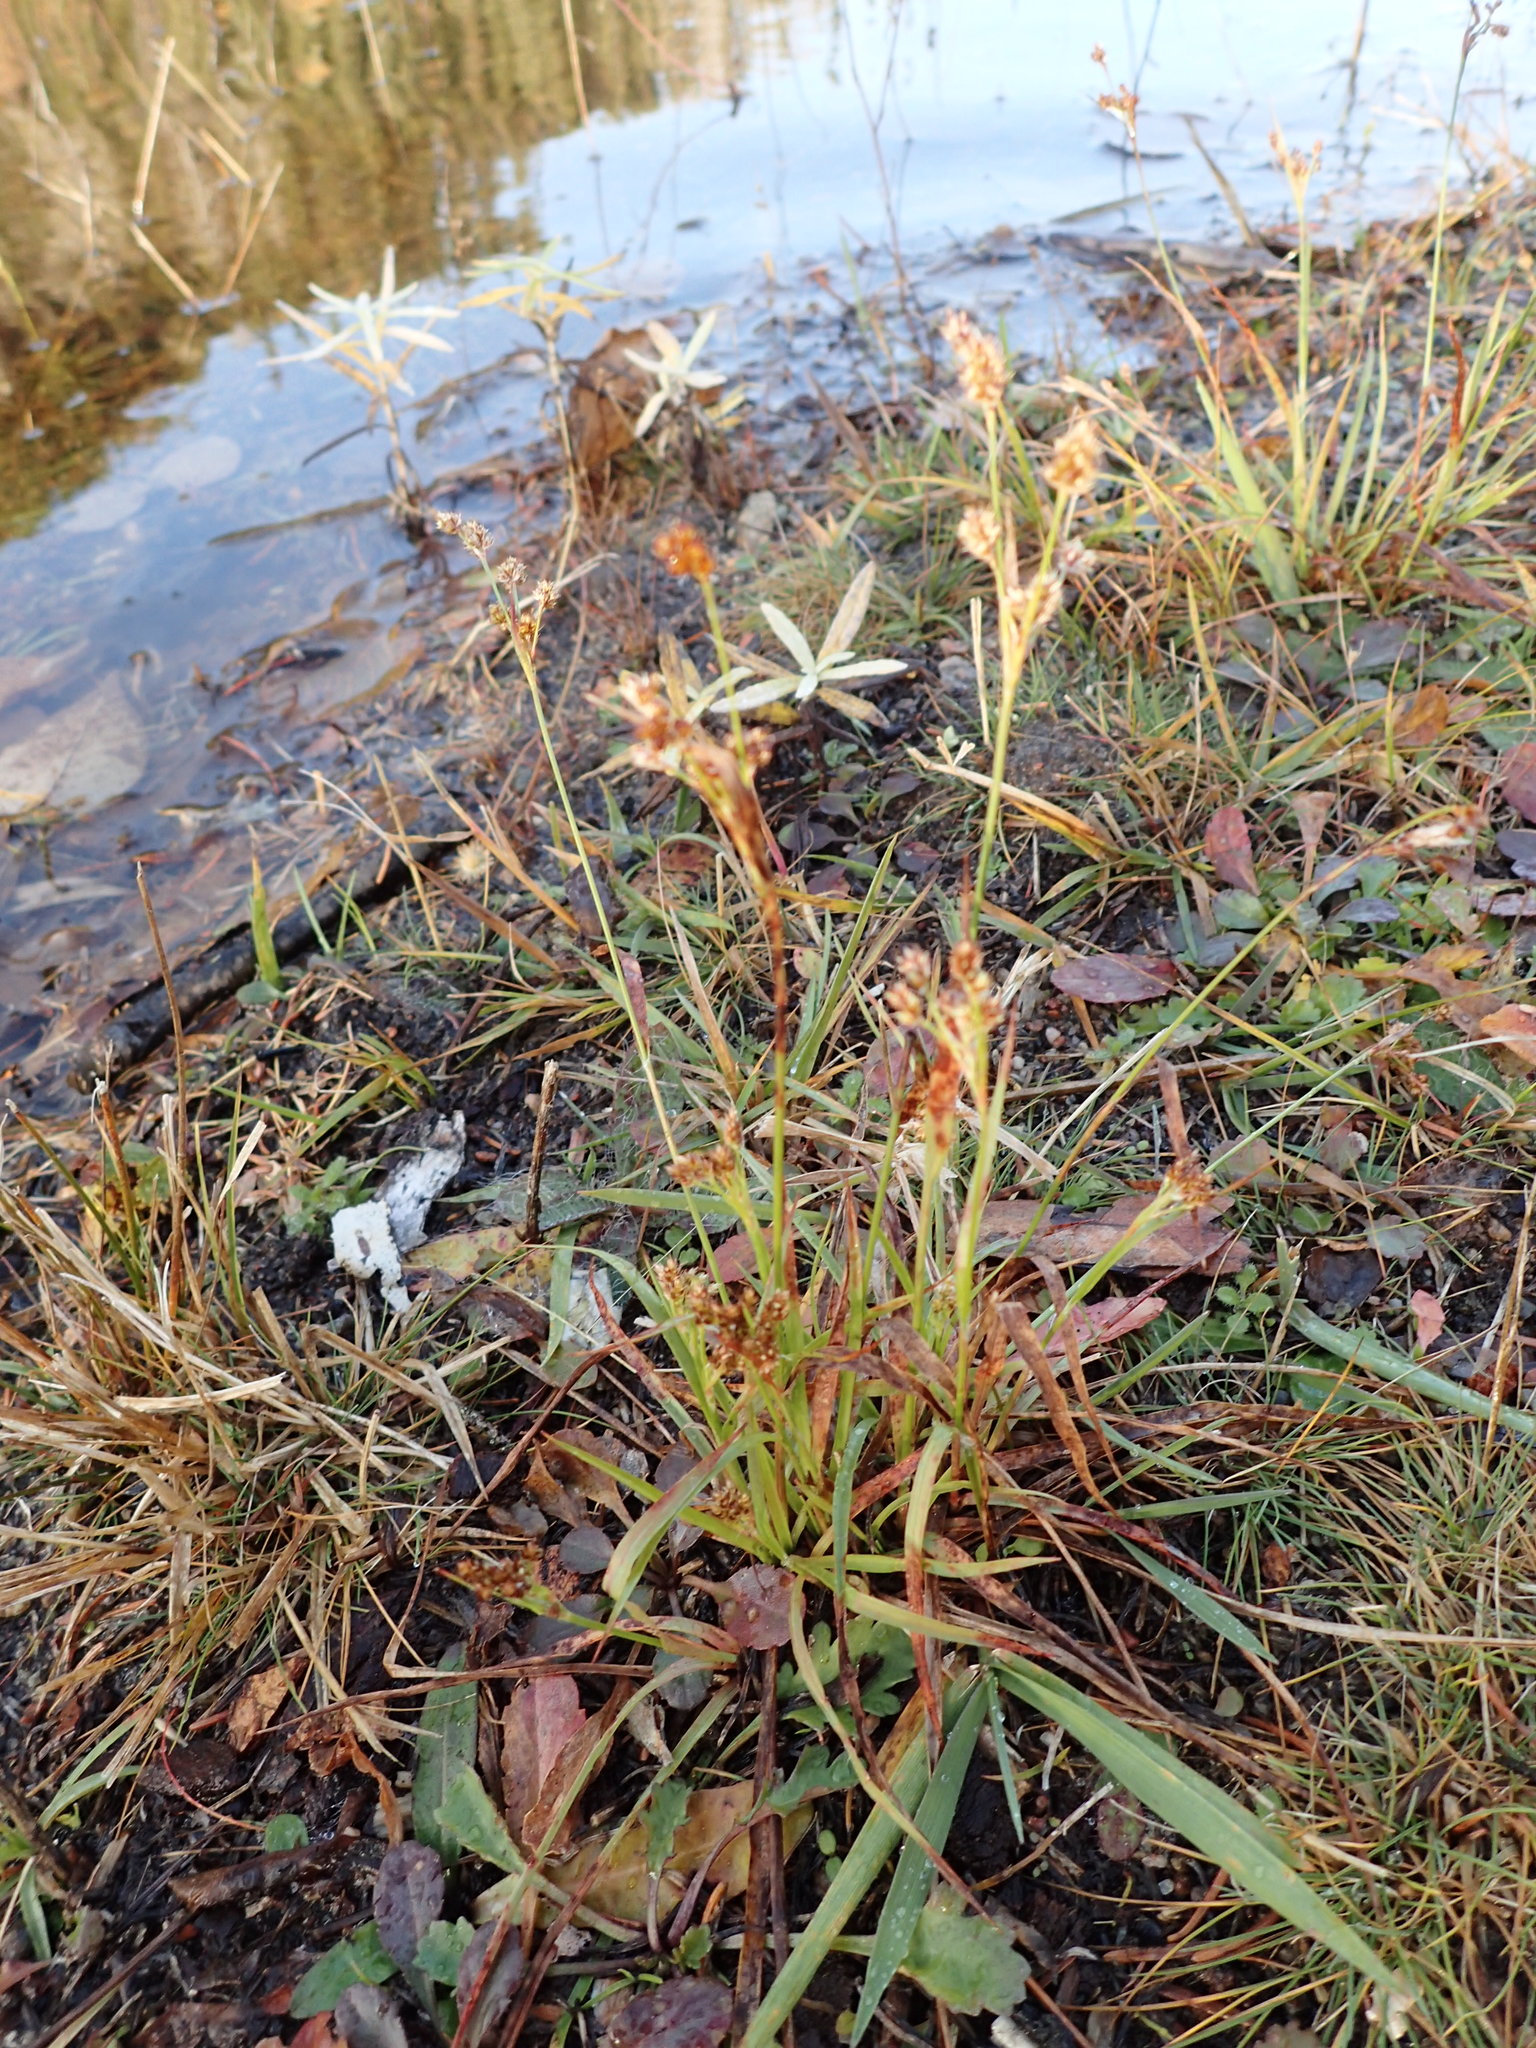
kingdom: Plantae
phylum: Tracheophyta
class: Liliopsida
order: Poales
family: Juncaceae
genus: Luzula
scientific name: Luzula multiflora
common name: Heath wood-rush
